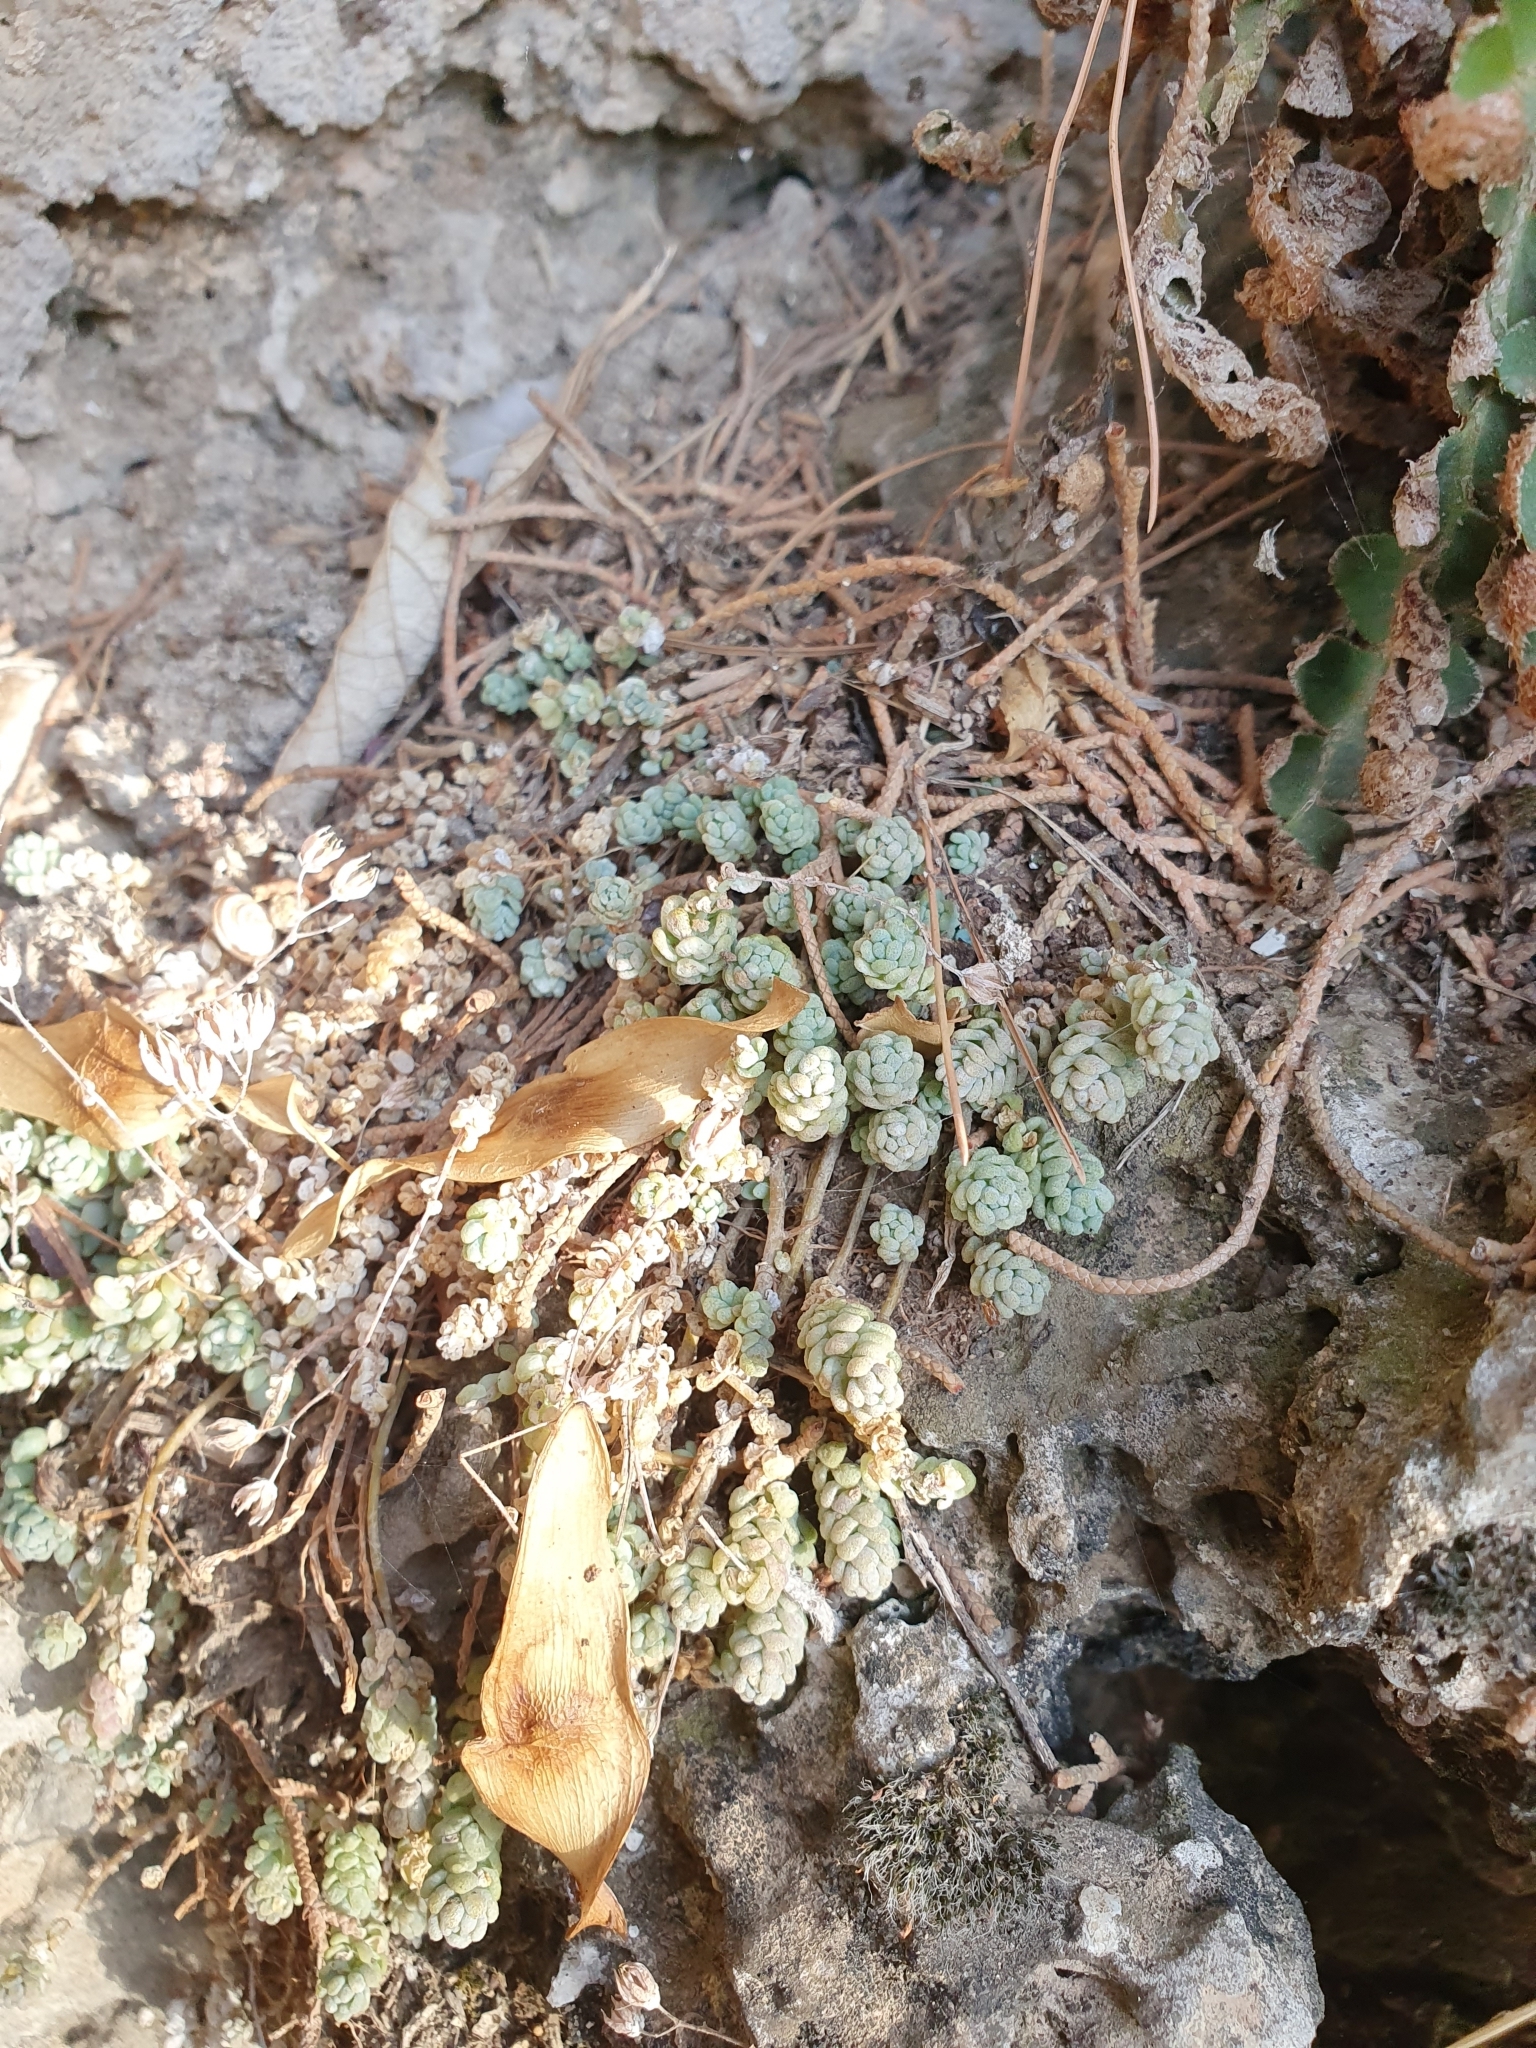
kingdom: Plantae
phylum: Tracheophyta
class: Magnoliopsida
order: Saxifragales
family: Crassulaceae
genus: Sedum
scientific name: Sedum dasyphyllum
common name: Thick-leaf stonecrop
